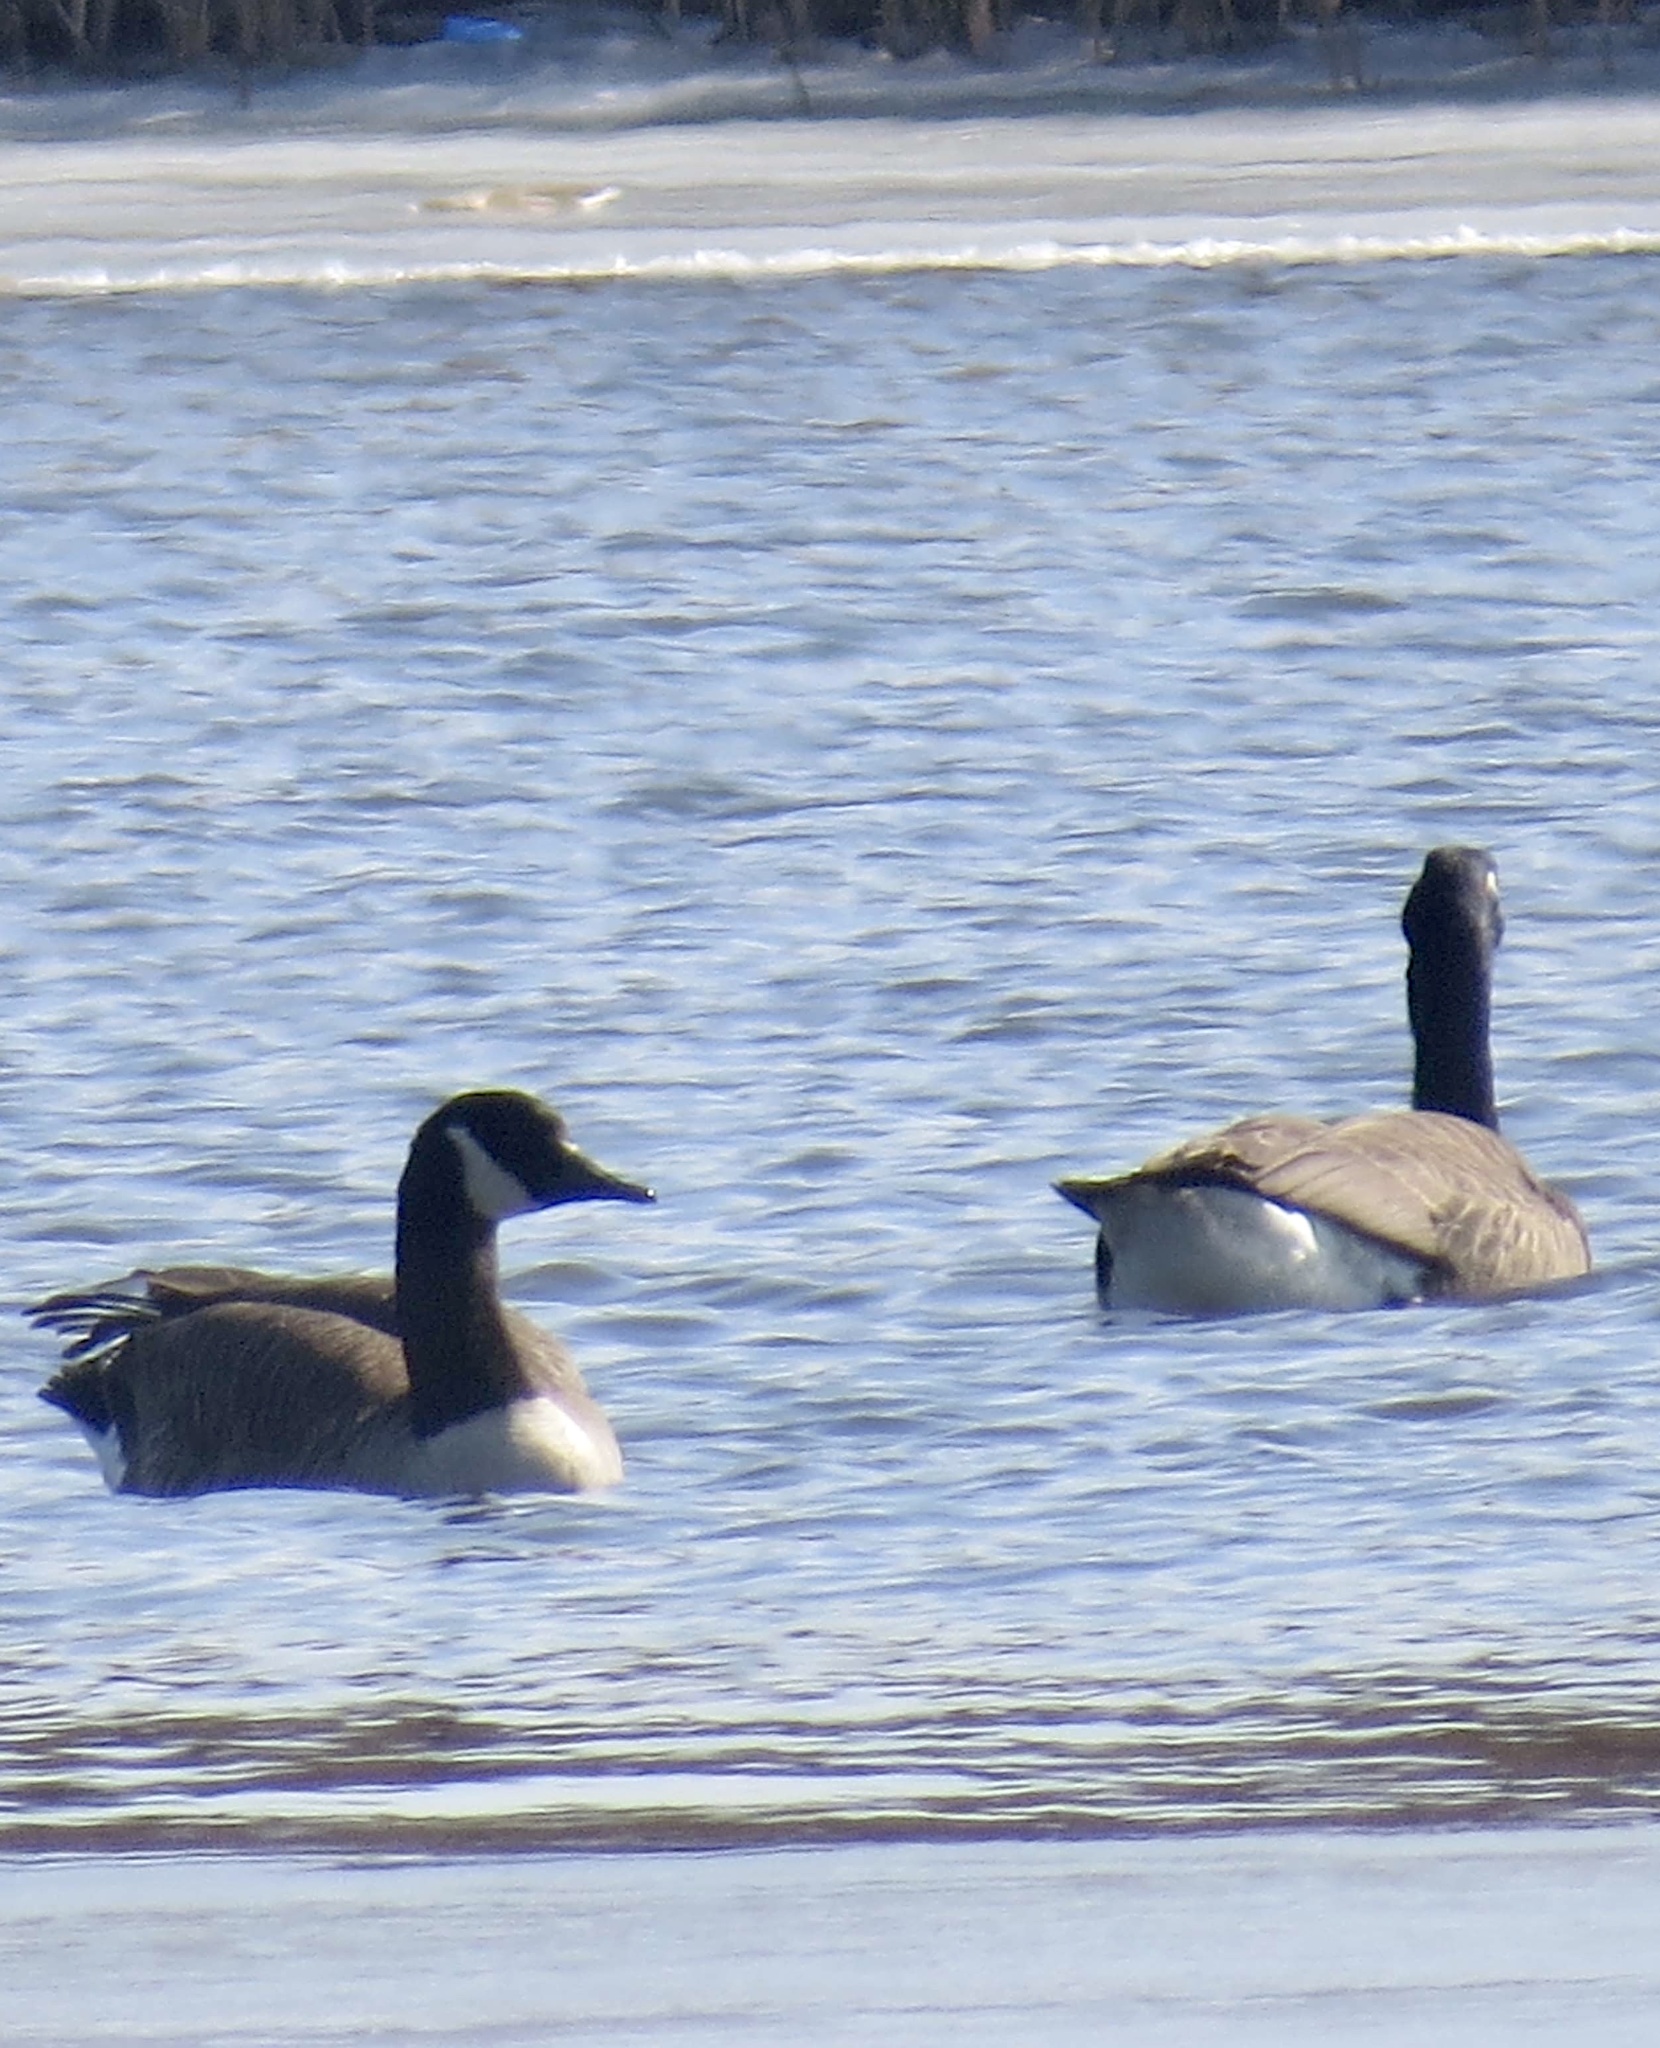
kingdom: Animalia
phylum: Chordata
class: Aves
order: Anseriformes
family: Anatidae
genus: Branta
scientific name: Branta canadensis
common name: Canada goose
